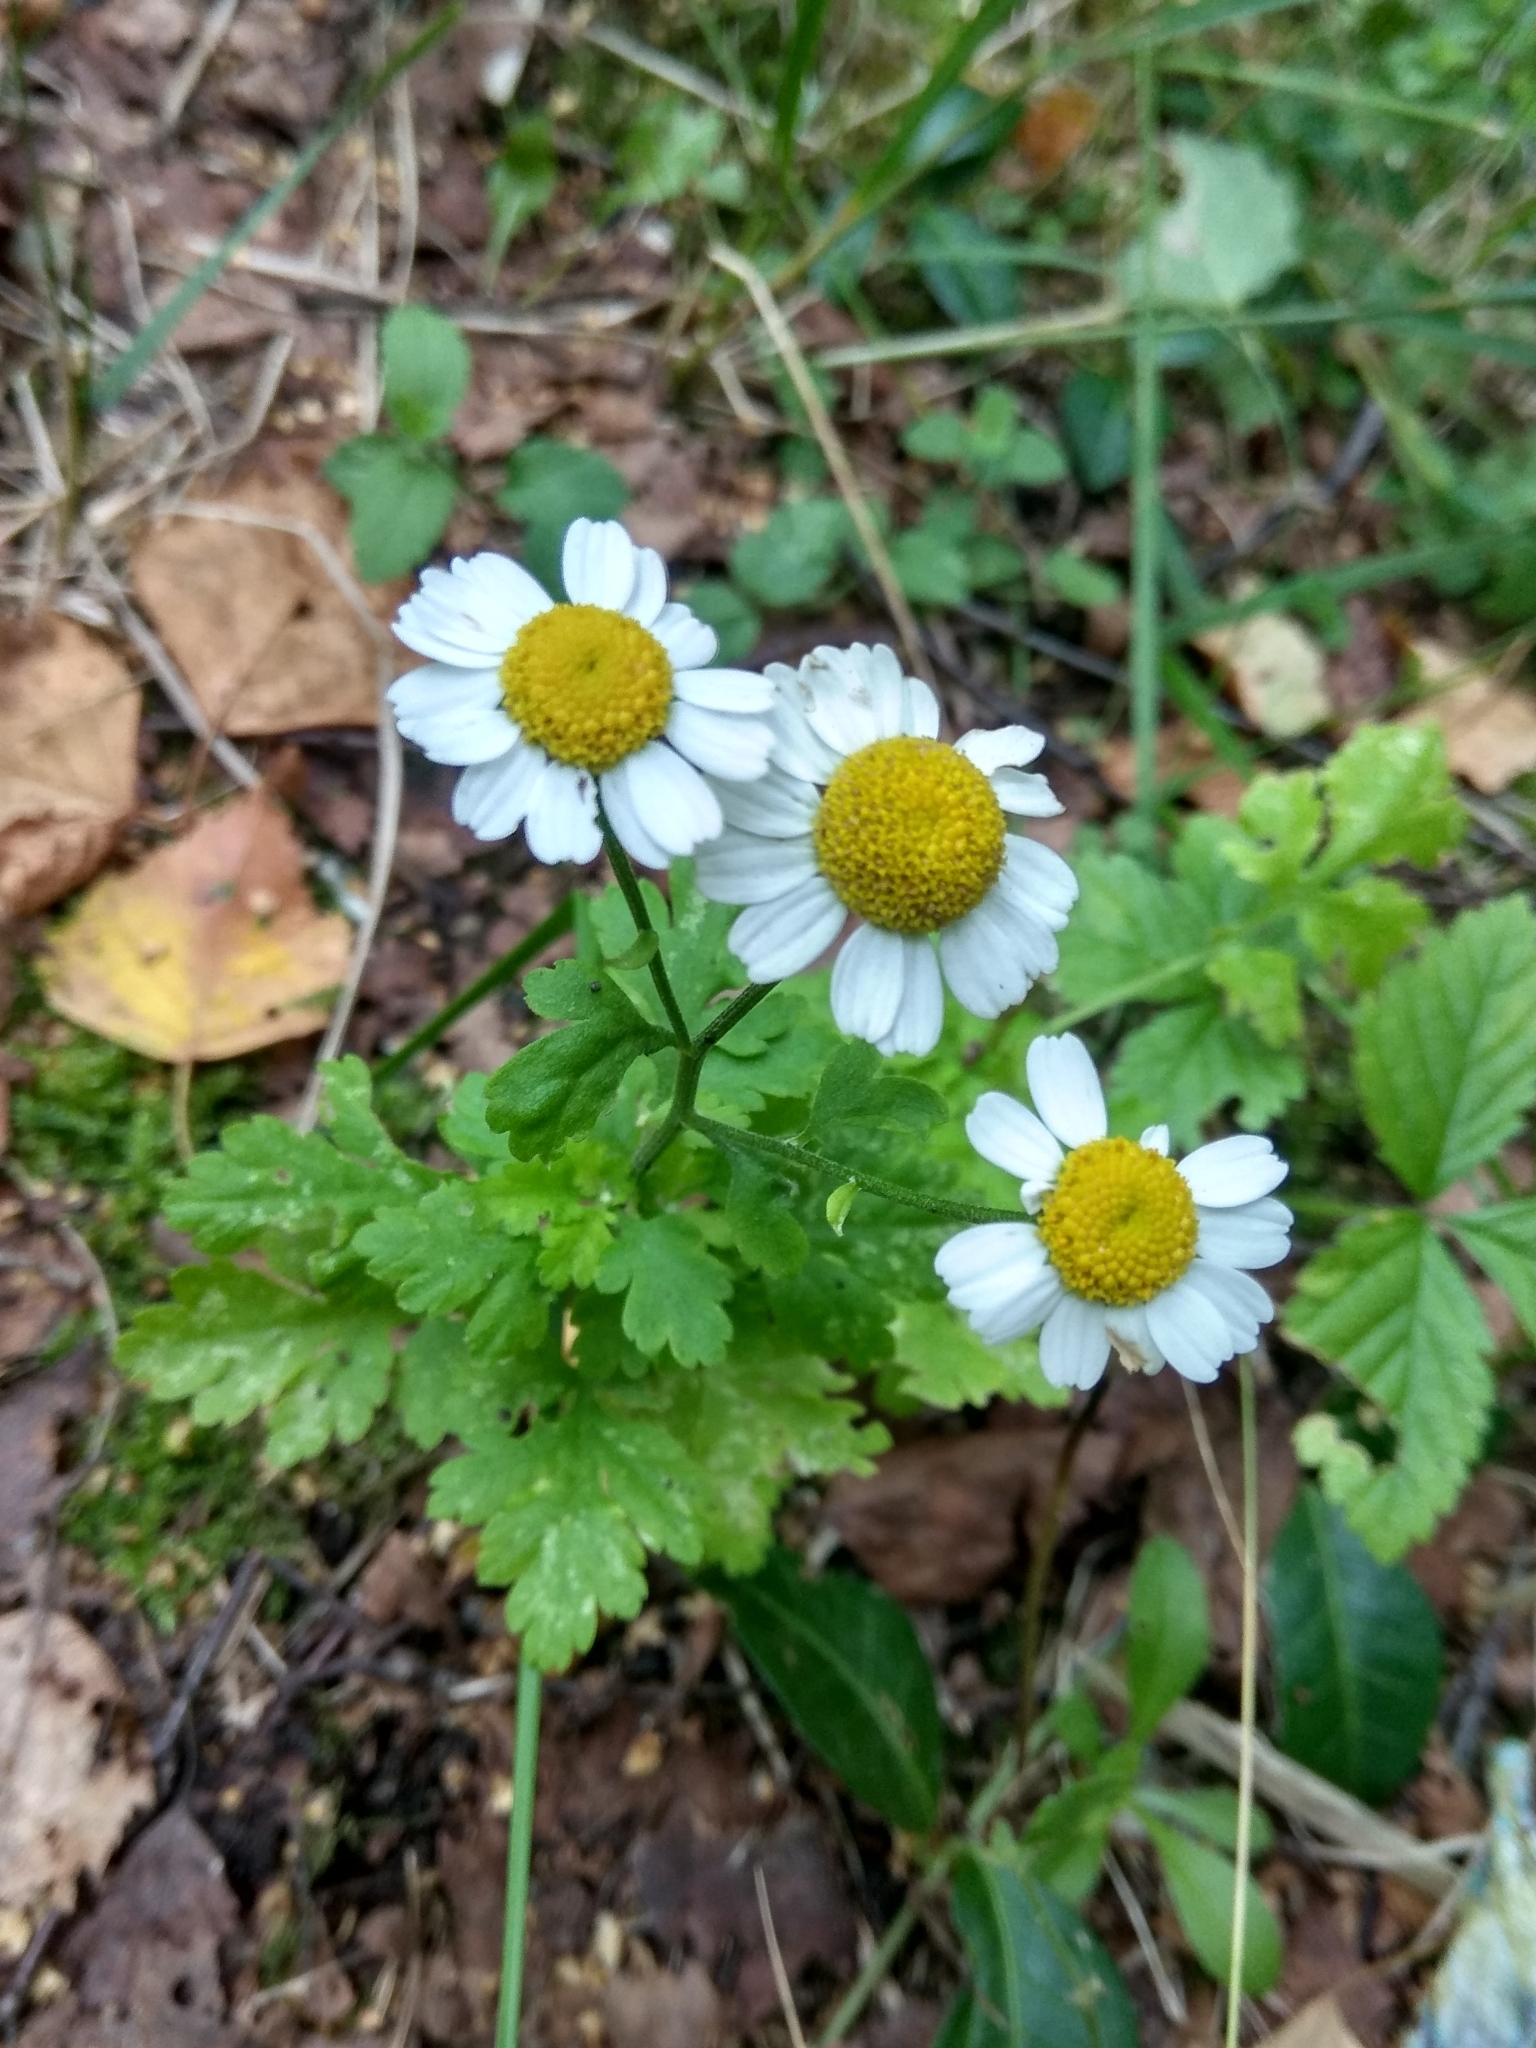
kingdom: Plantae
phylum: Tracheophyta
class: Magnoliopsida
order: Asterales
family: Asteraceae
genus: Tanacetum
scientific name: Tanacetum parthenium
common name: Feverfew
